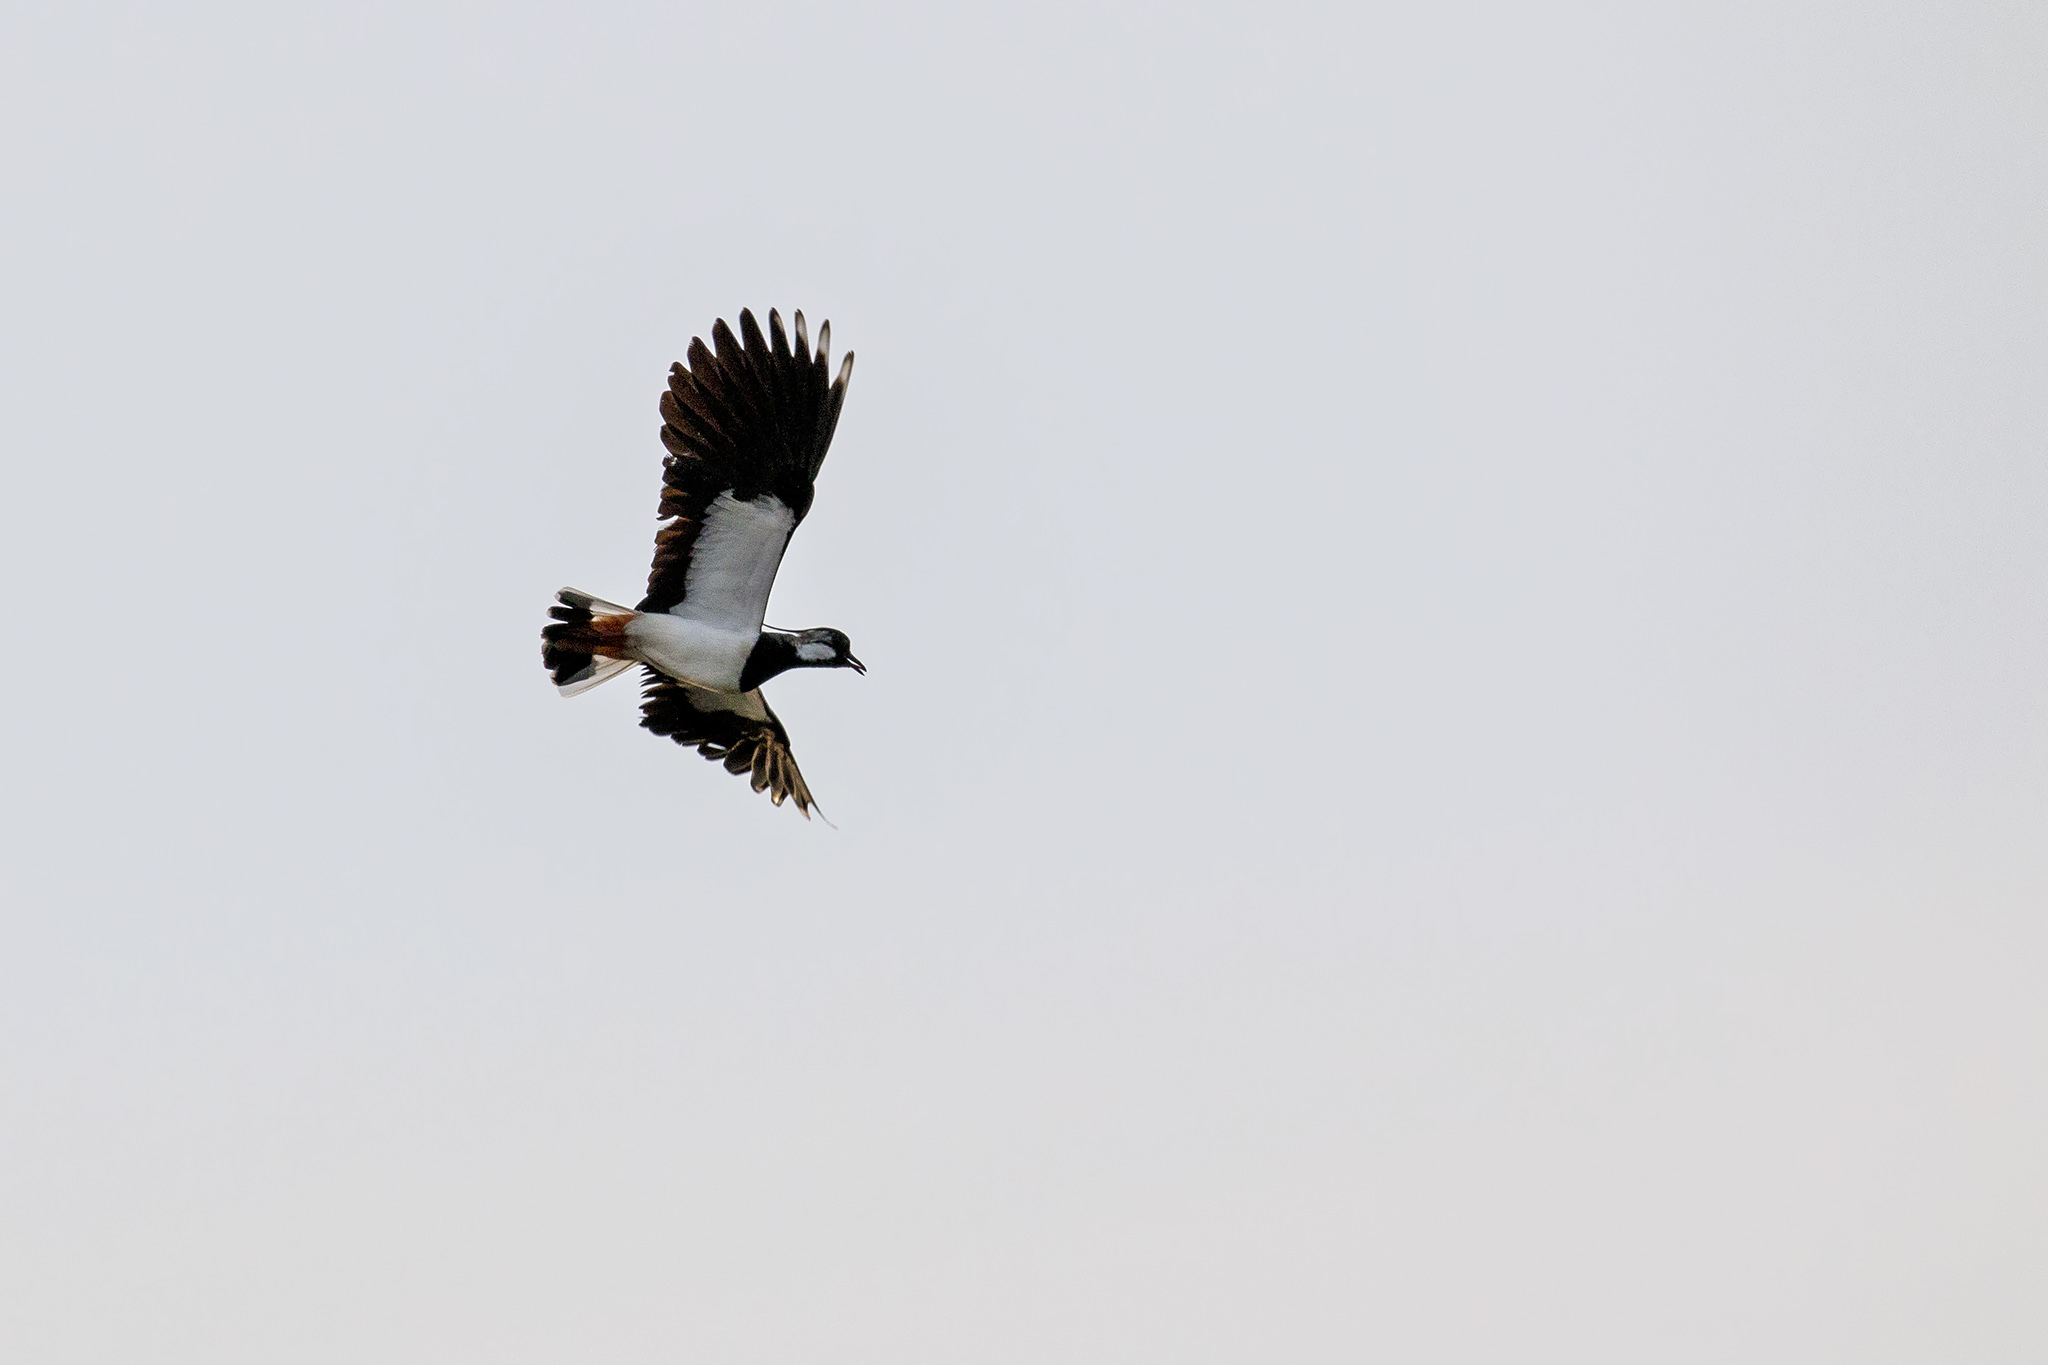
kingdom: Animalia
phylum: Chordata
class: Aves
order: Charadriiformes
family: Charadriidae
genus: Vanellus
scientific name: Vanellus vanellus
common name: Northern lapwing
